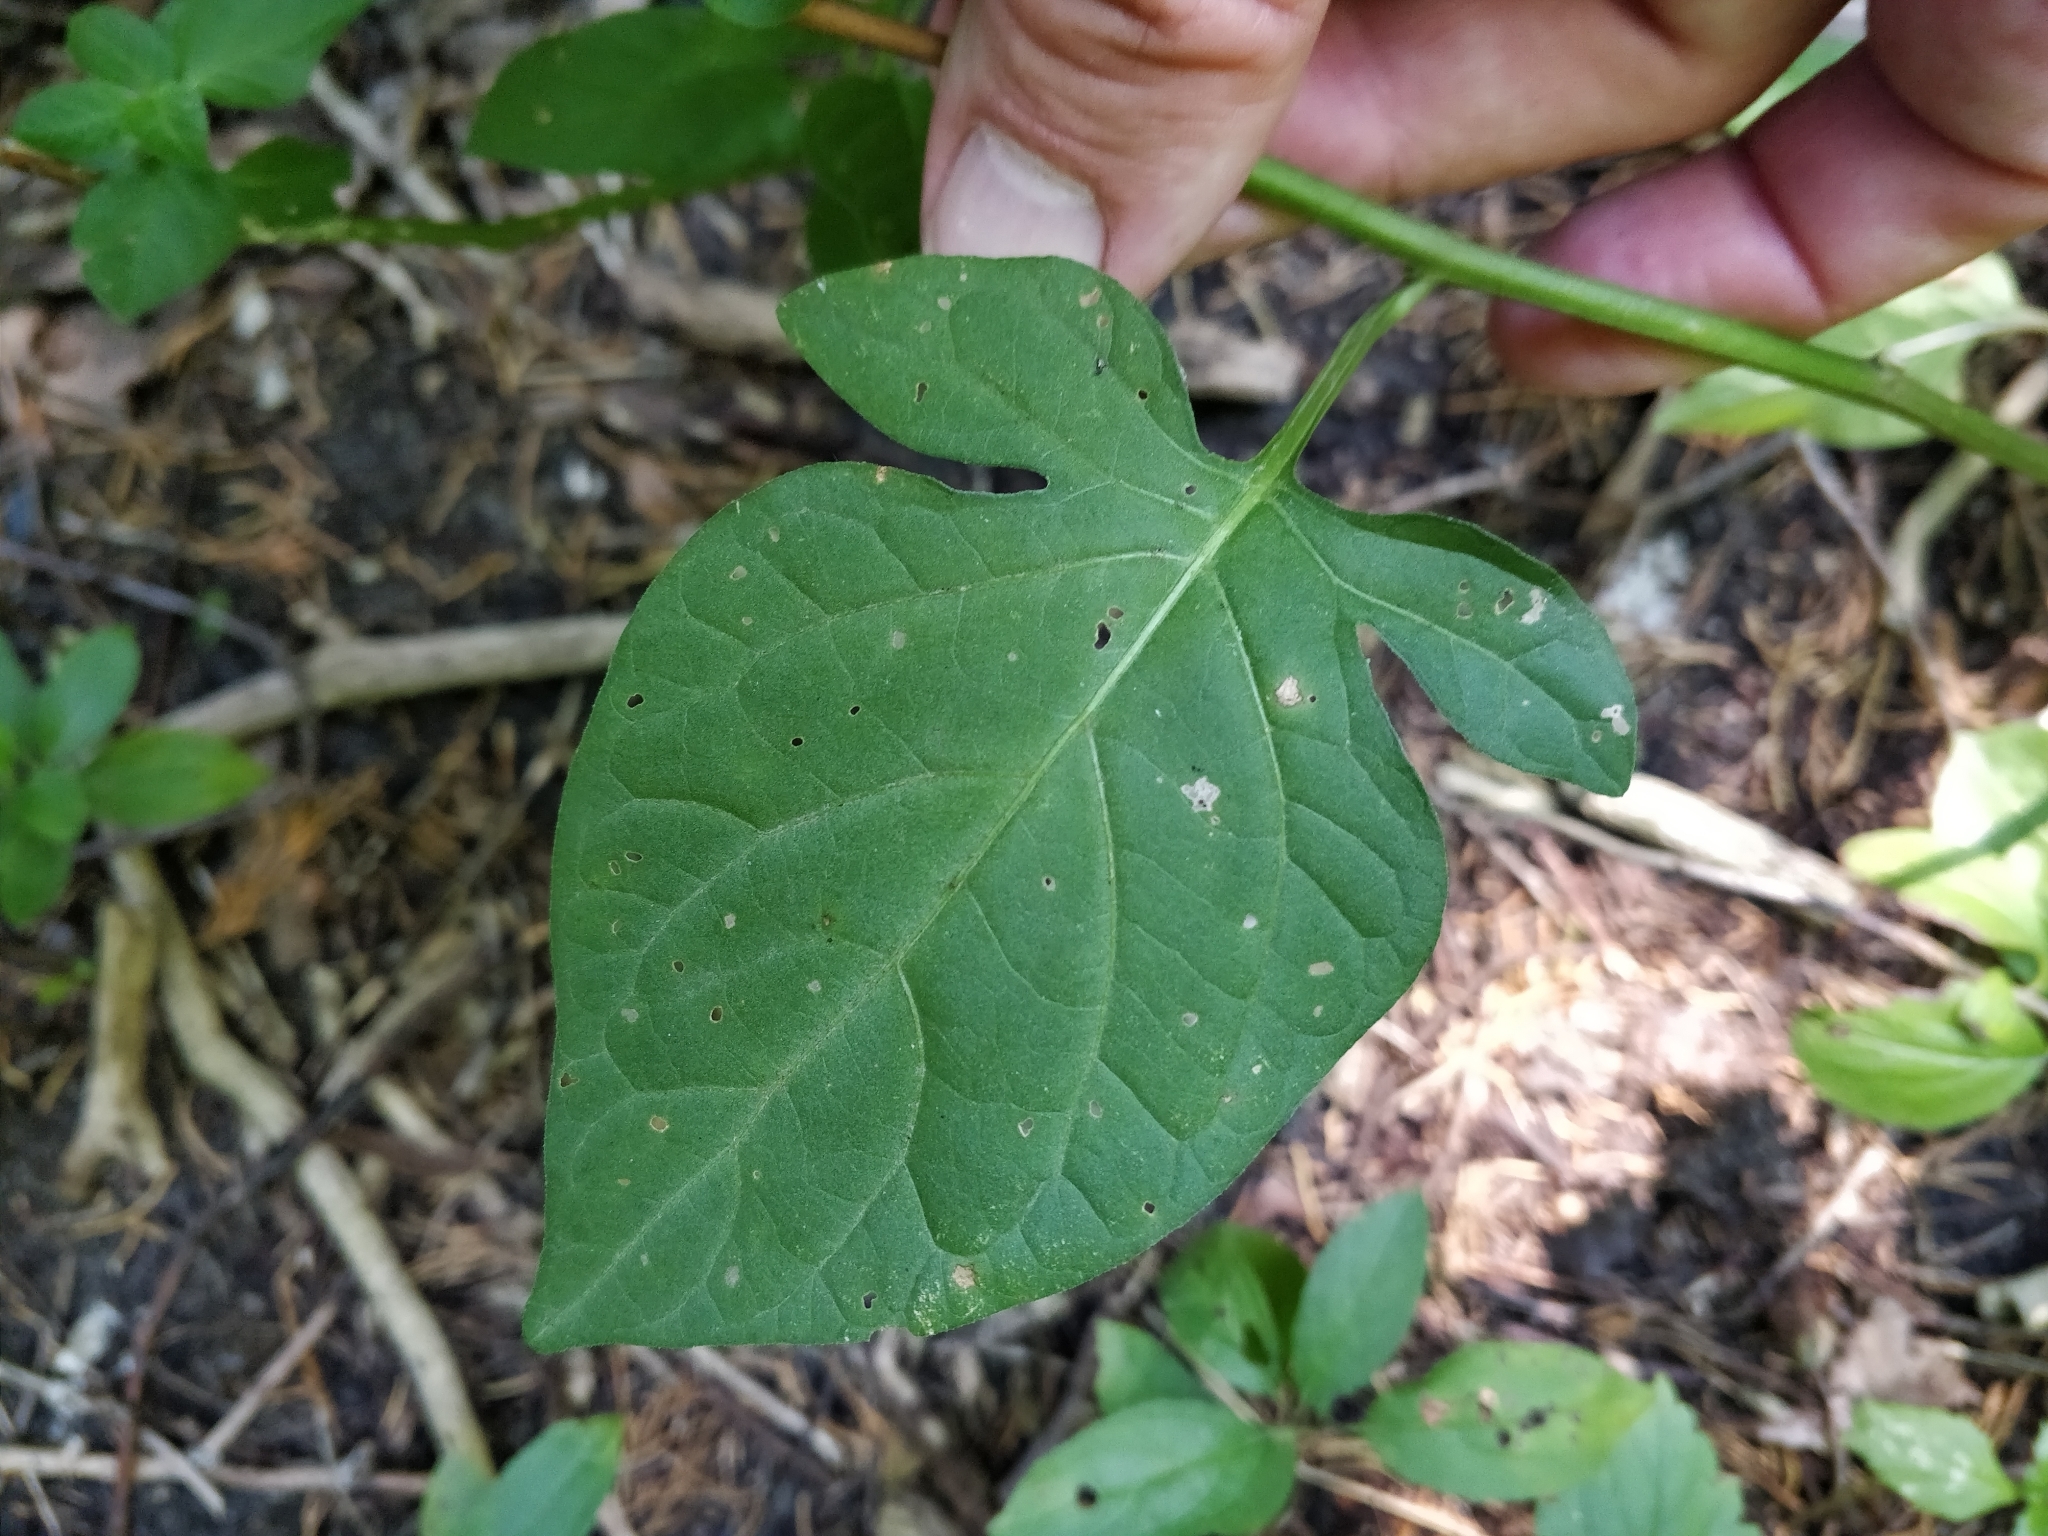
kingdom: Plantae
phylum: Tracheophyta
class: Magnoliopsida
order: Solanales
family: Solanaceae
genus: Solanum
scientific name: Solanum dulcamara
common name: Climbing nightshade
